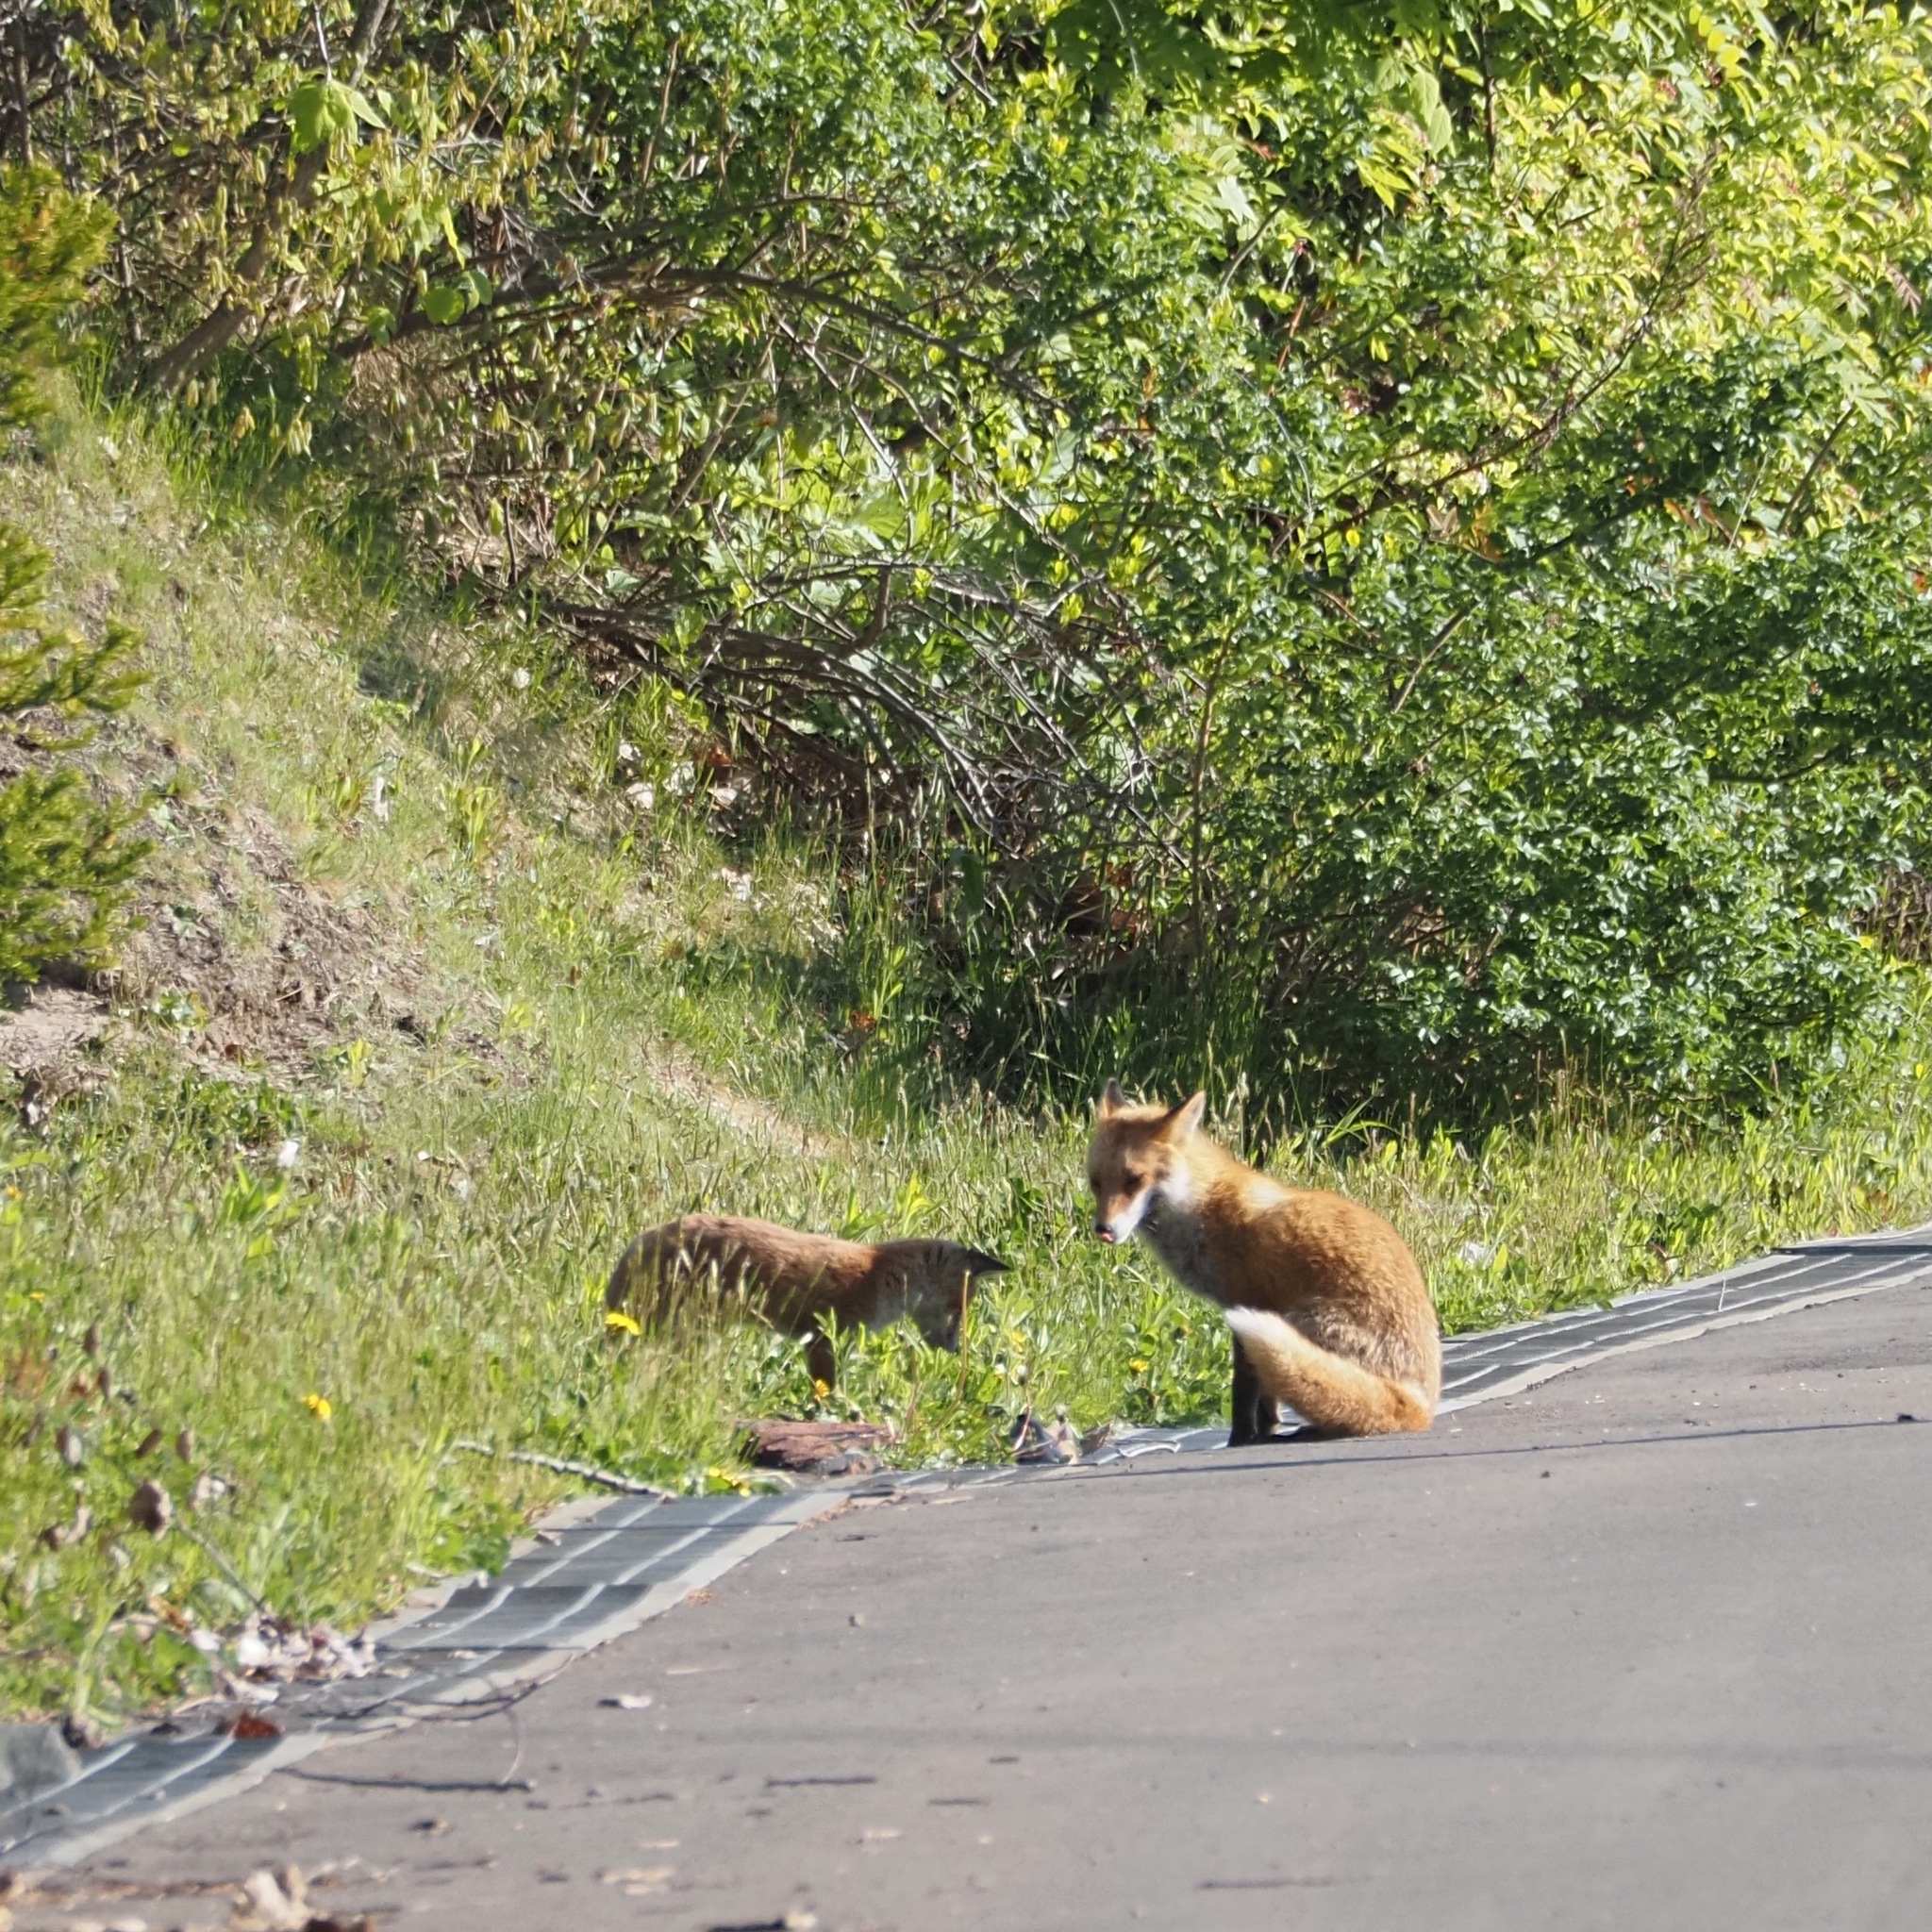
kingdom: Animalia
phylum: Chordata
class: Mammalia
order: Carnivora
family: Canidae
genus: Vulpes
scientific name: Vulpes vulpes
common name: Red fox
